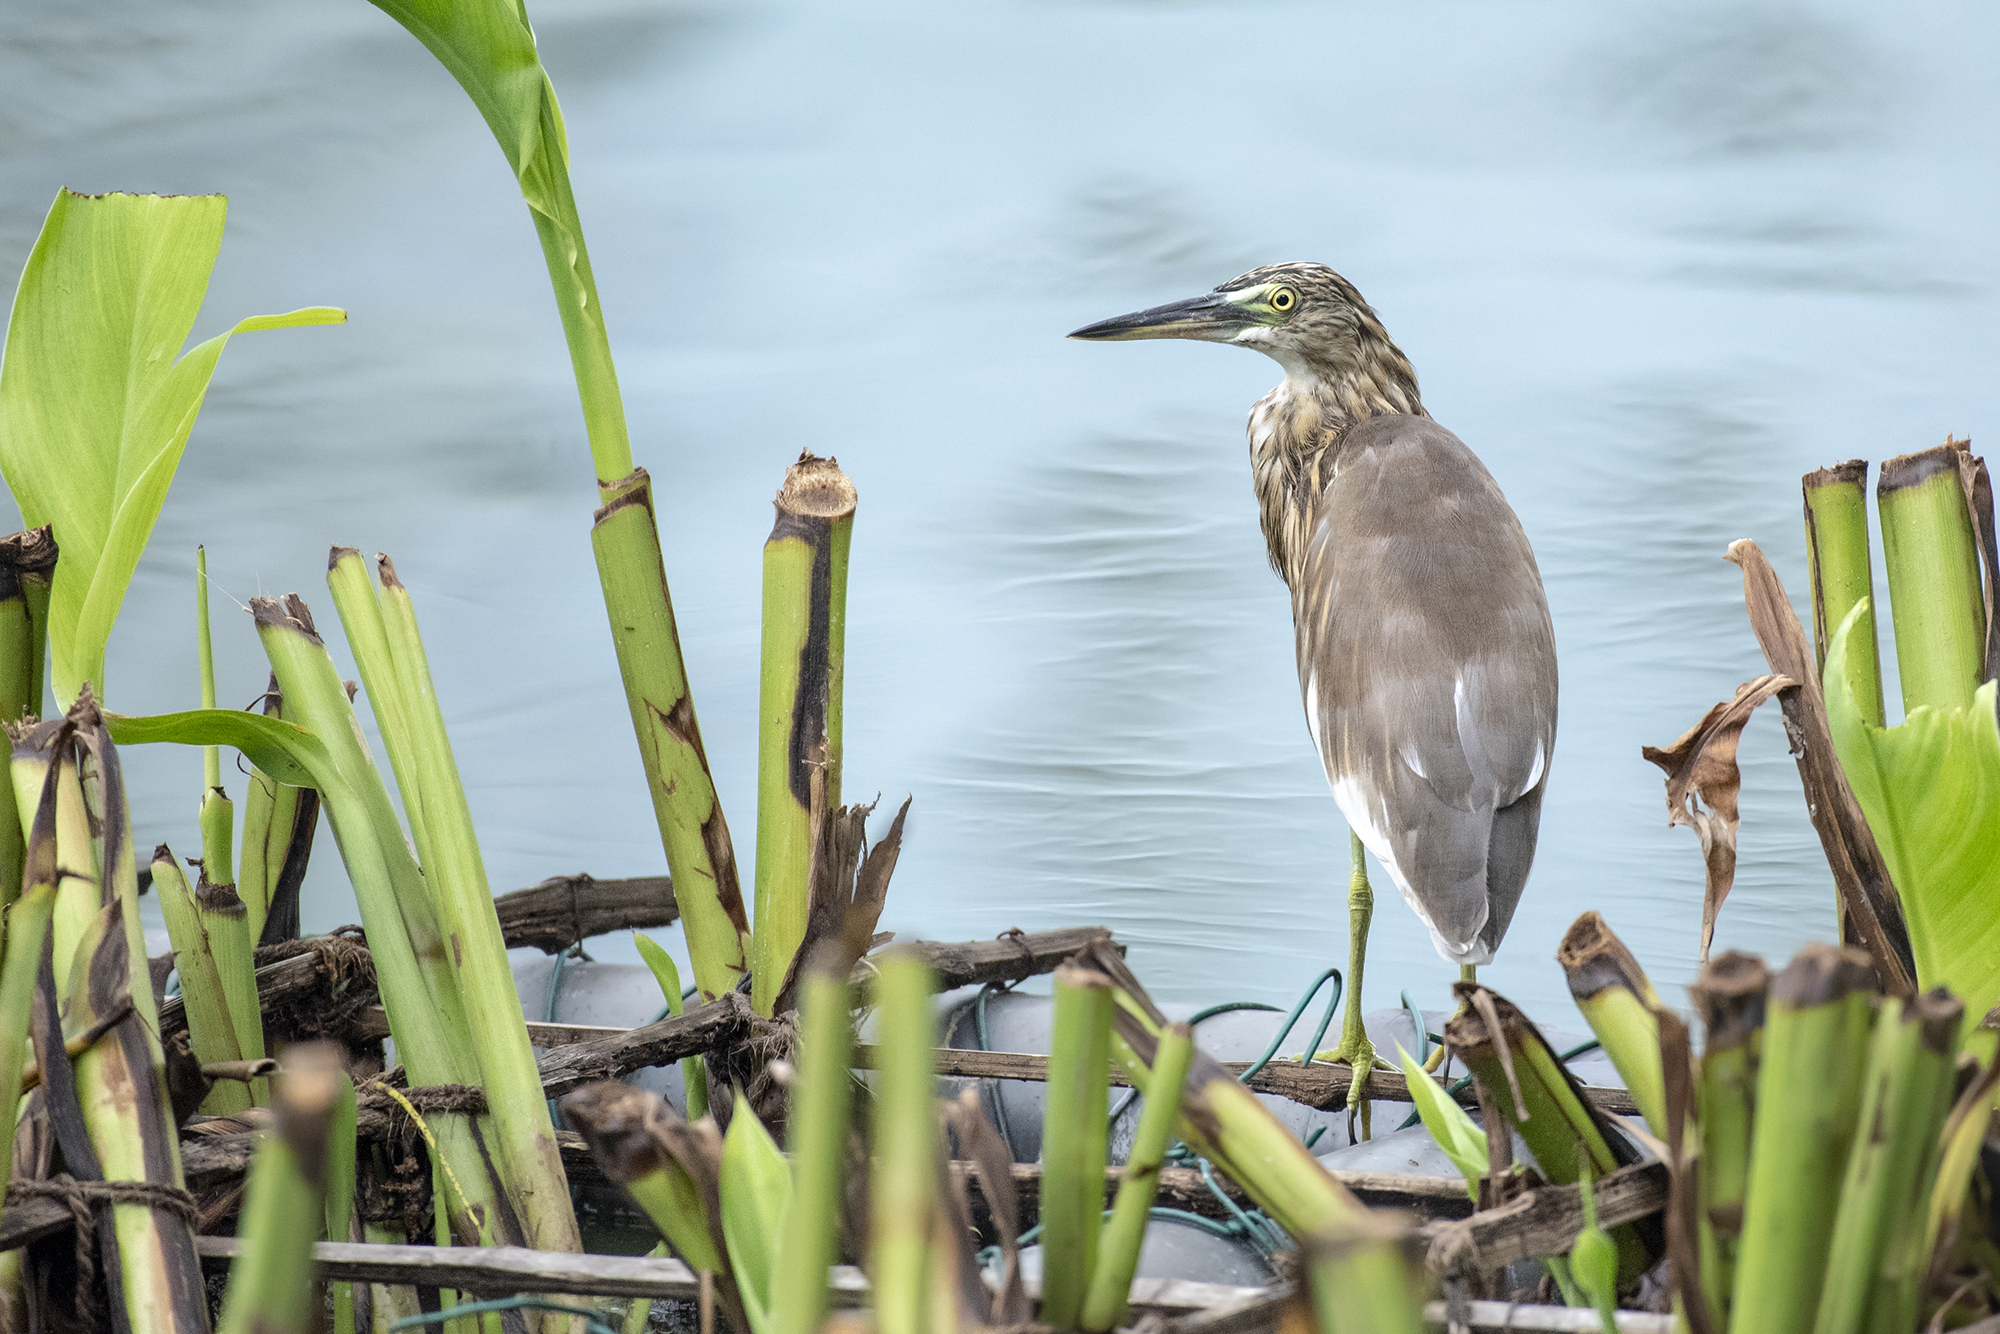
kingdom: Animalia
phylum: Chordata
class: Aves
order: Pelecaniformes
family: Ardeidae
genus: Ardeola
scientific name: Ardeola grayii
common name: Indian pond heron
